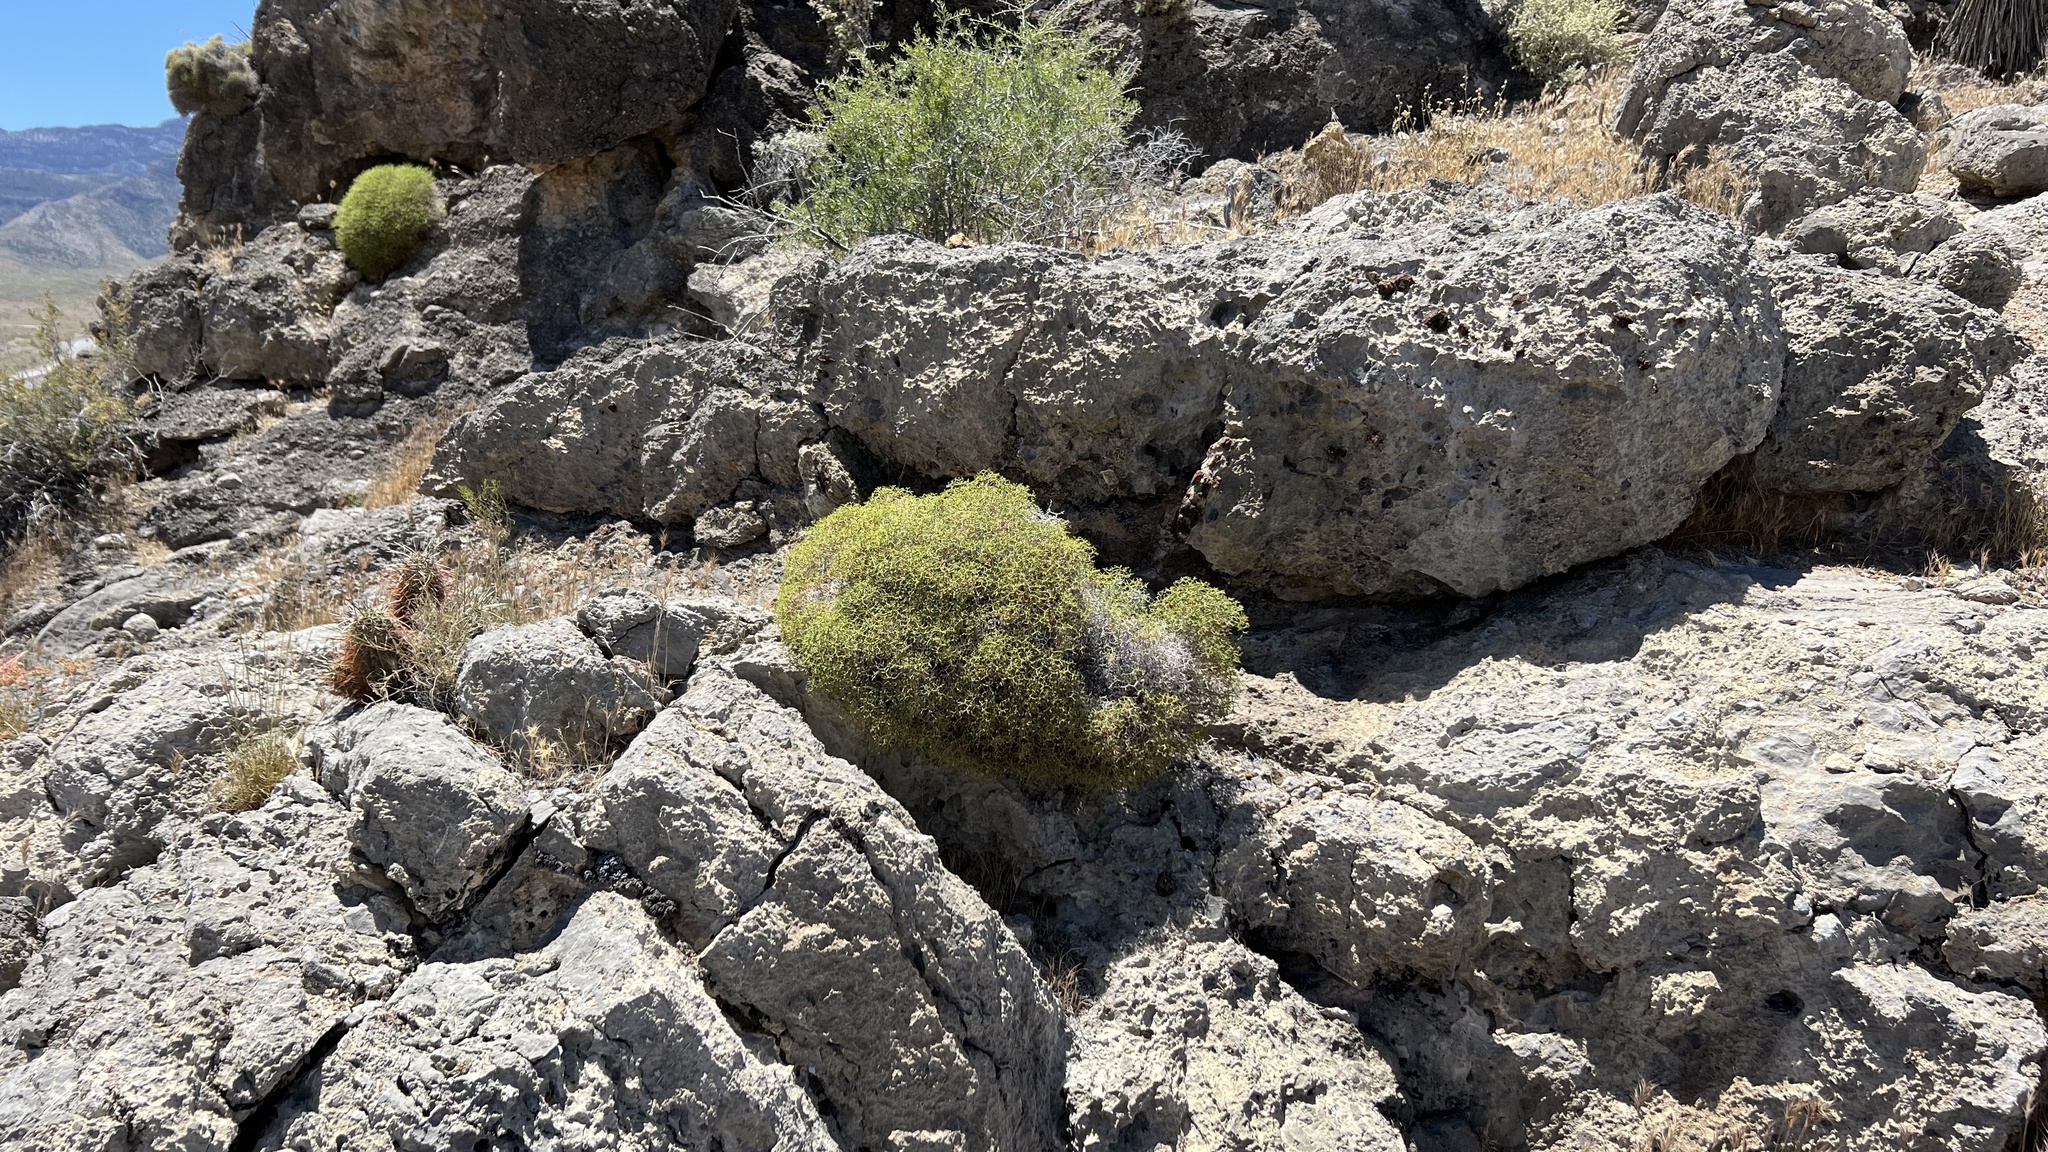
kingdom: Plantae
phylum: Tracheophyta
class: Magnoliopsida
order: Caryophyllales
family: Polygonaceae
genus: Eriogonum
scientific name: Eriogonum heermannii
